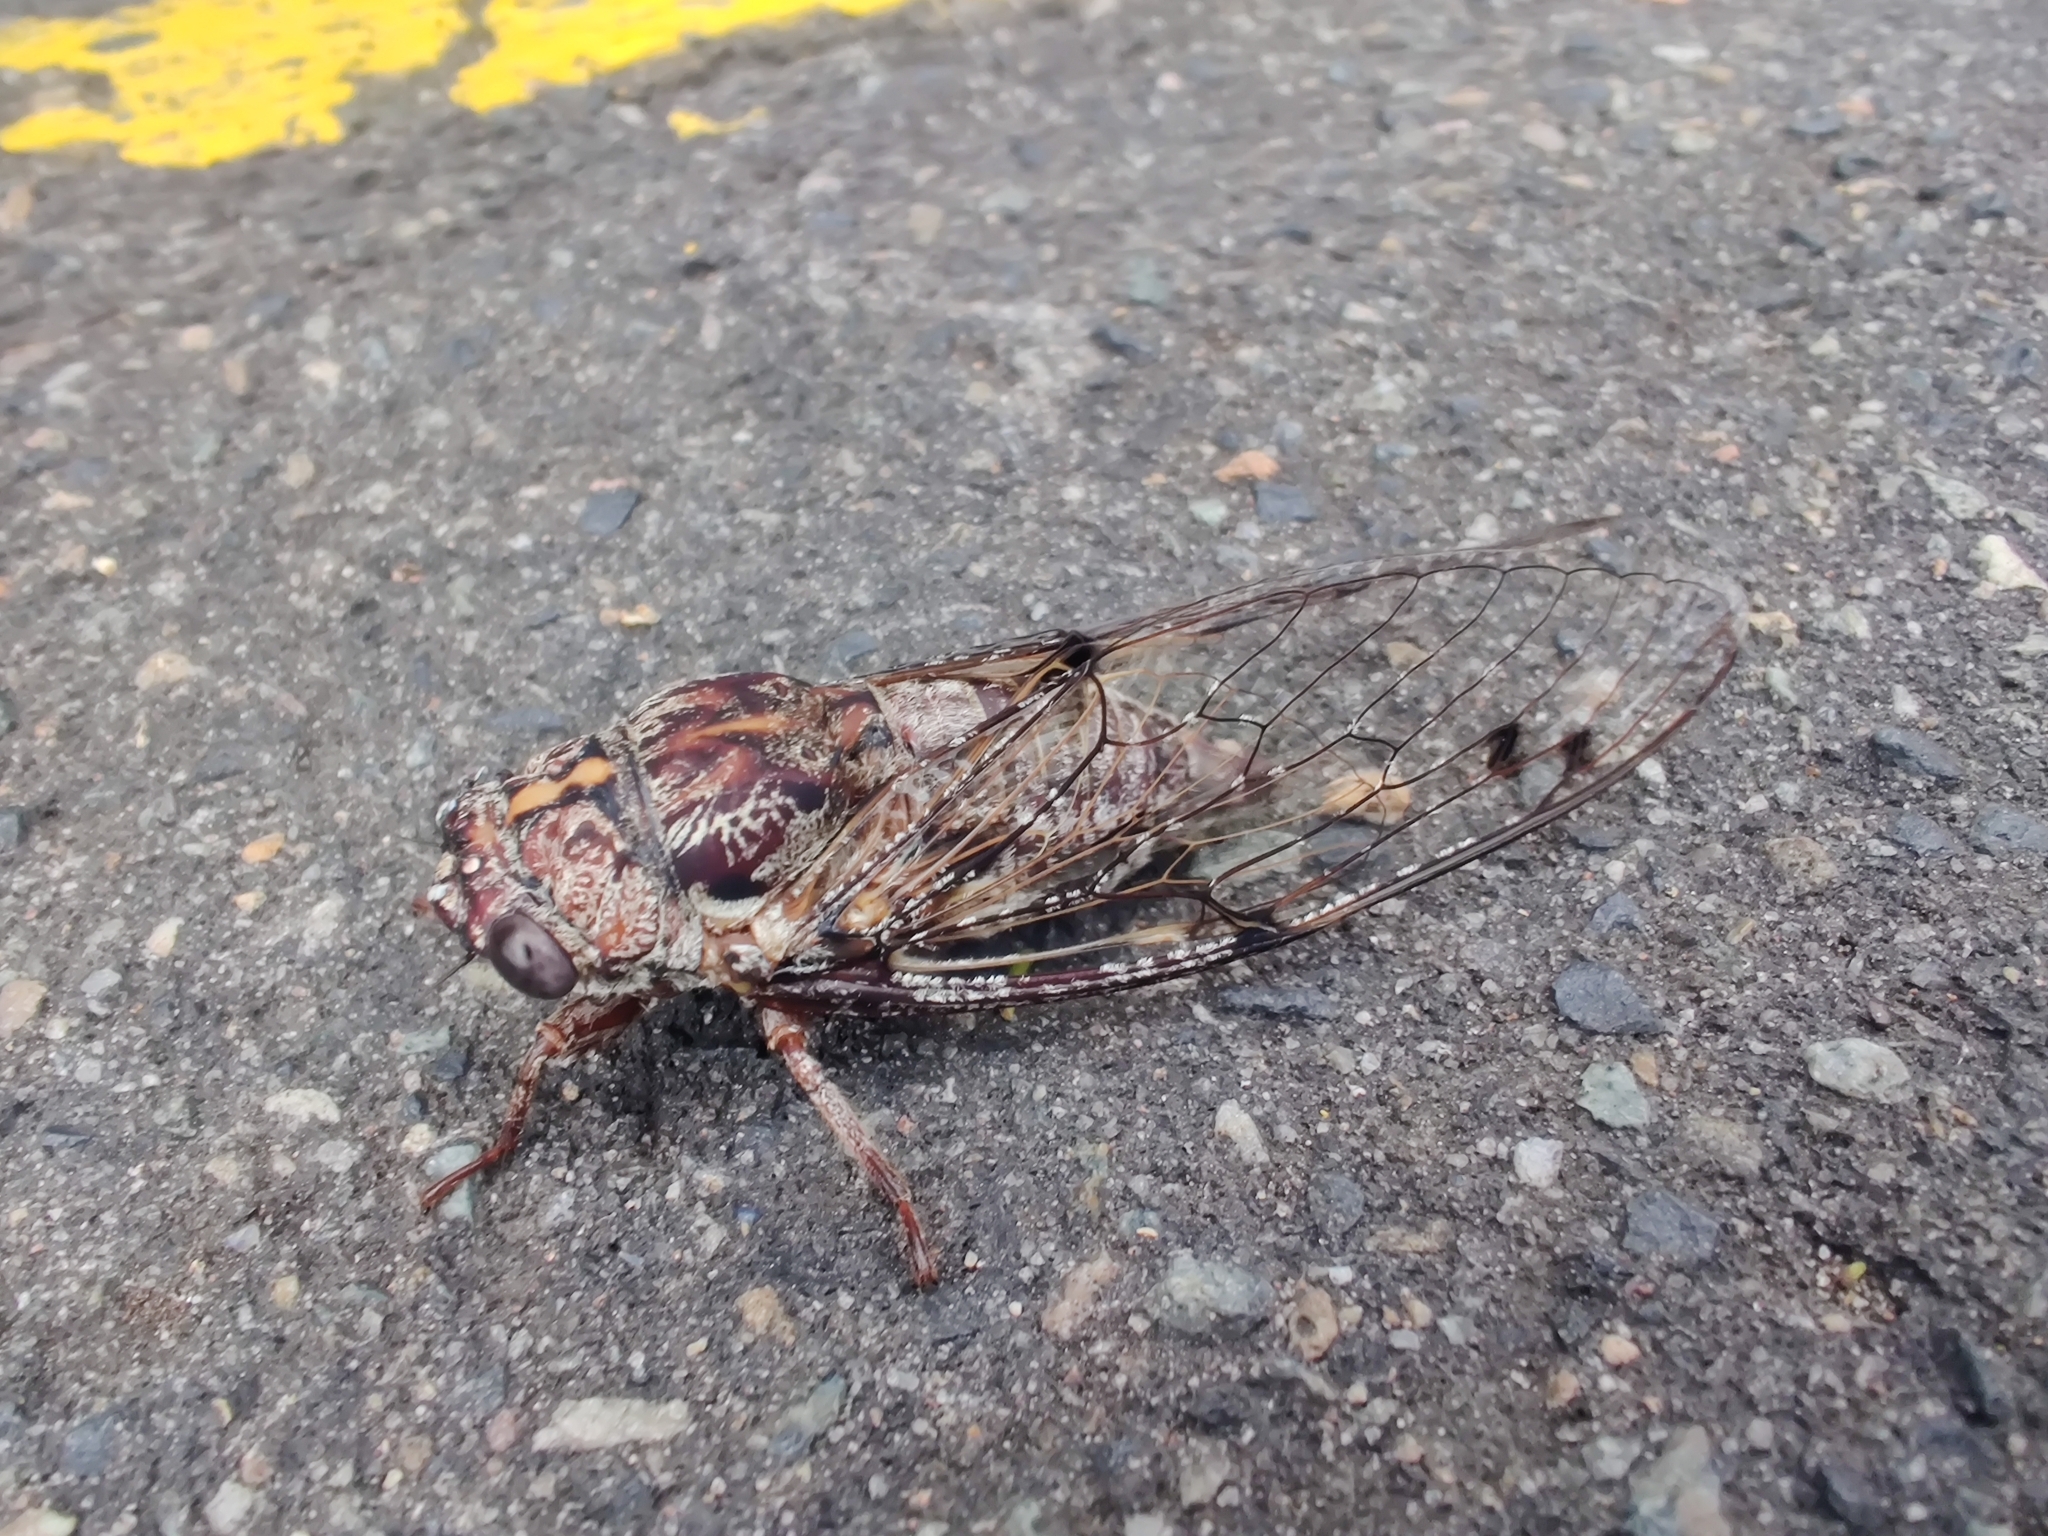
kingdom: Animalia
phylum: Arthropoda
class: Insecta
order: Hemiptera
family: Cicadidae
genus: Aleeta
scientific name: Aleeta curvicosta
